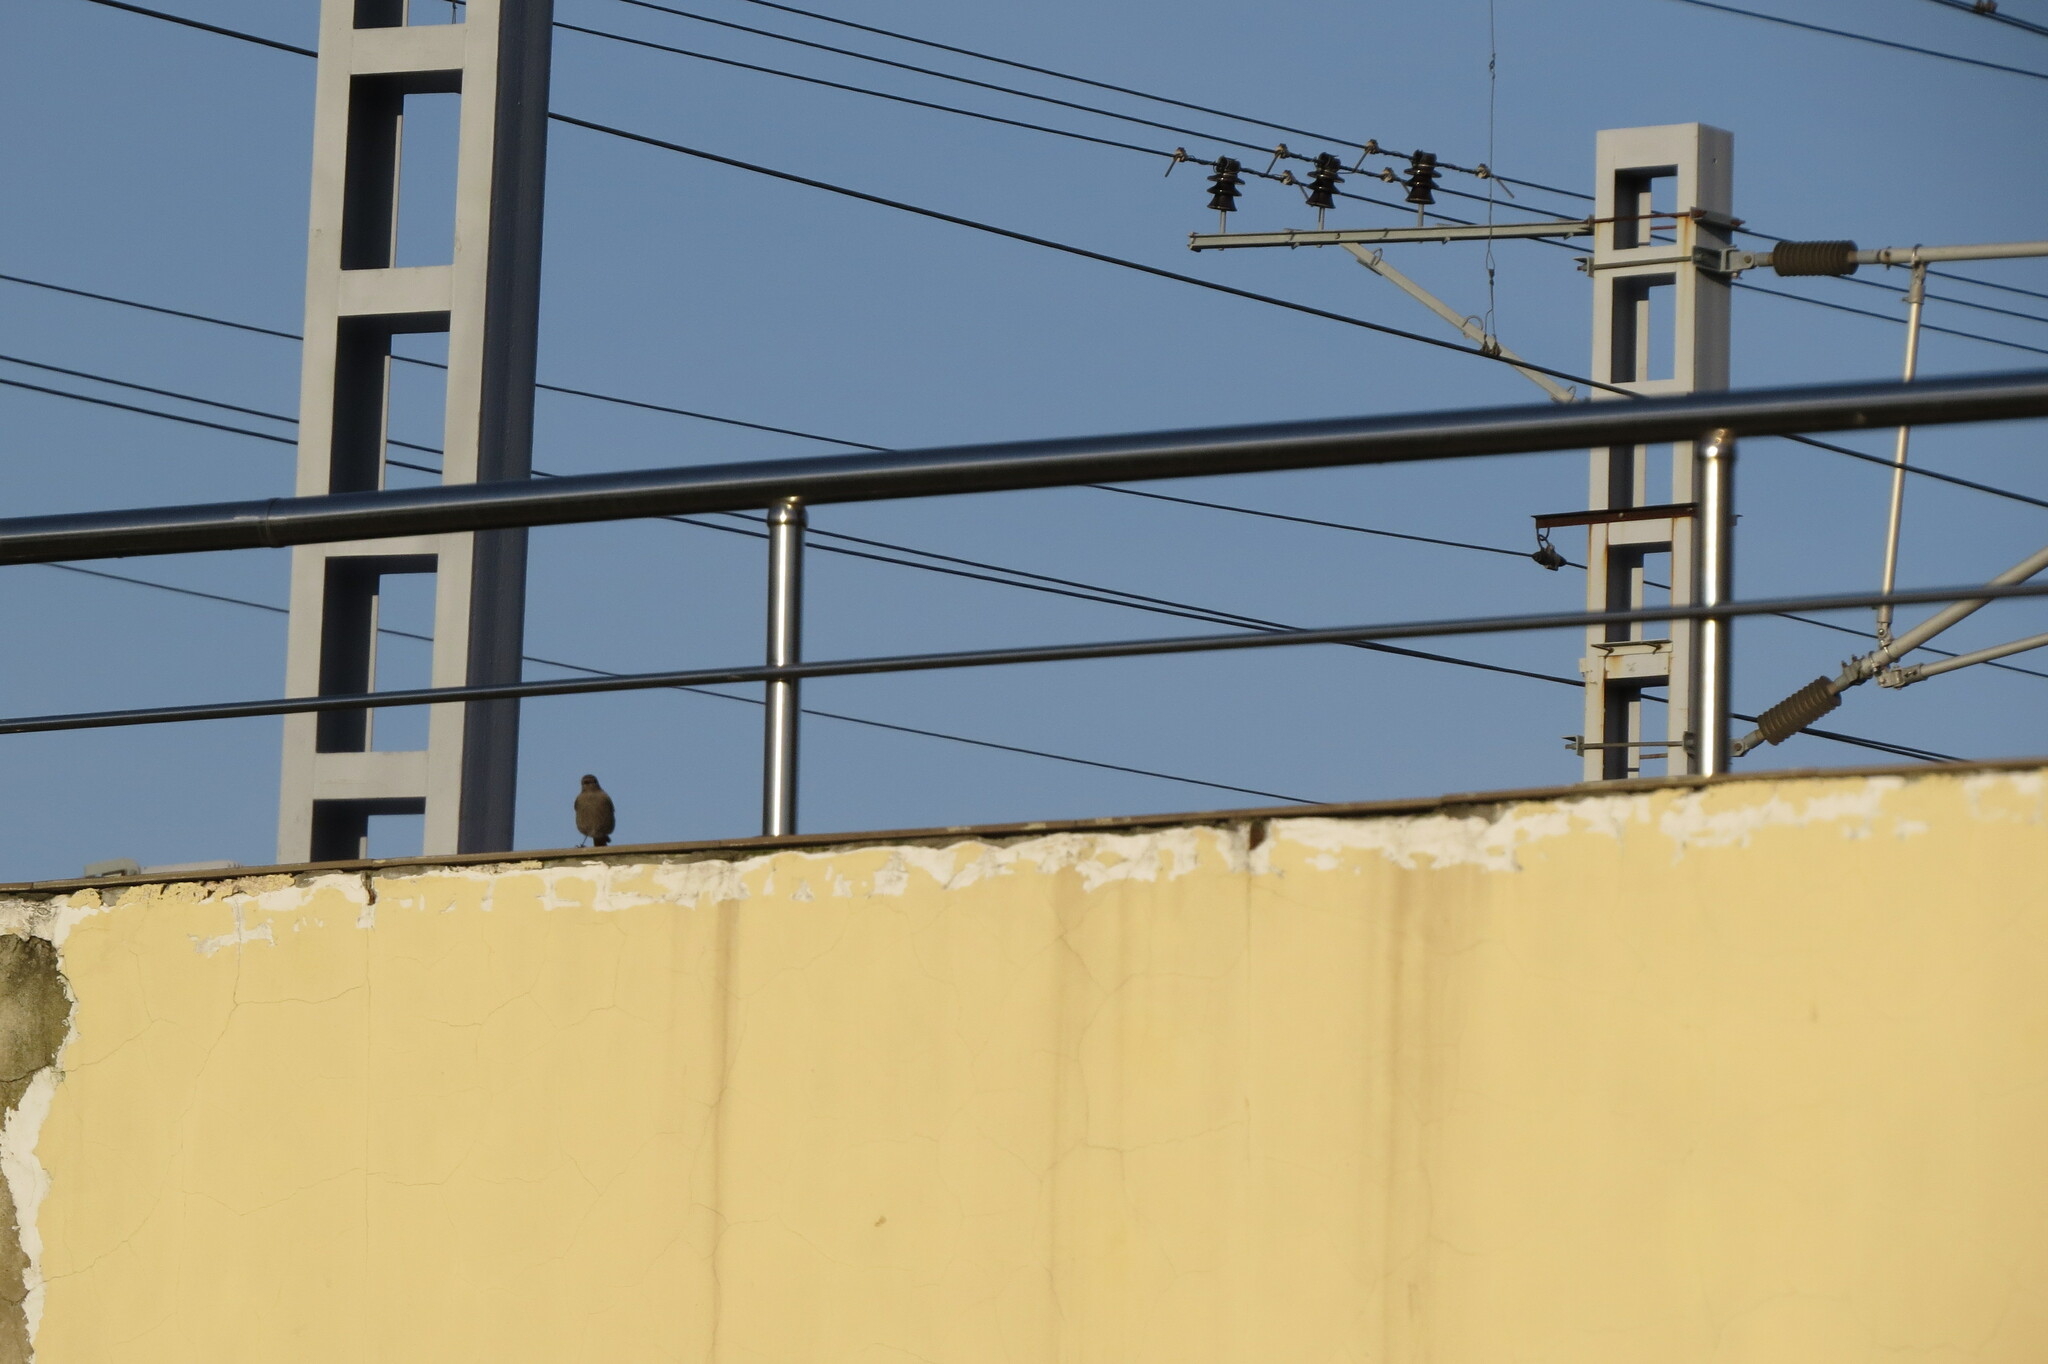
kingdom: Animalia
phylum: Chordata
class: Aves
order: Passeriformes
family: Muscicapidae
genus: Phoenicurus
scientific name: Phoenicurus ochruros
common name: Black redstart
